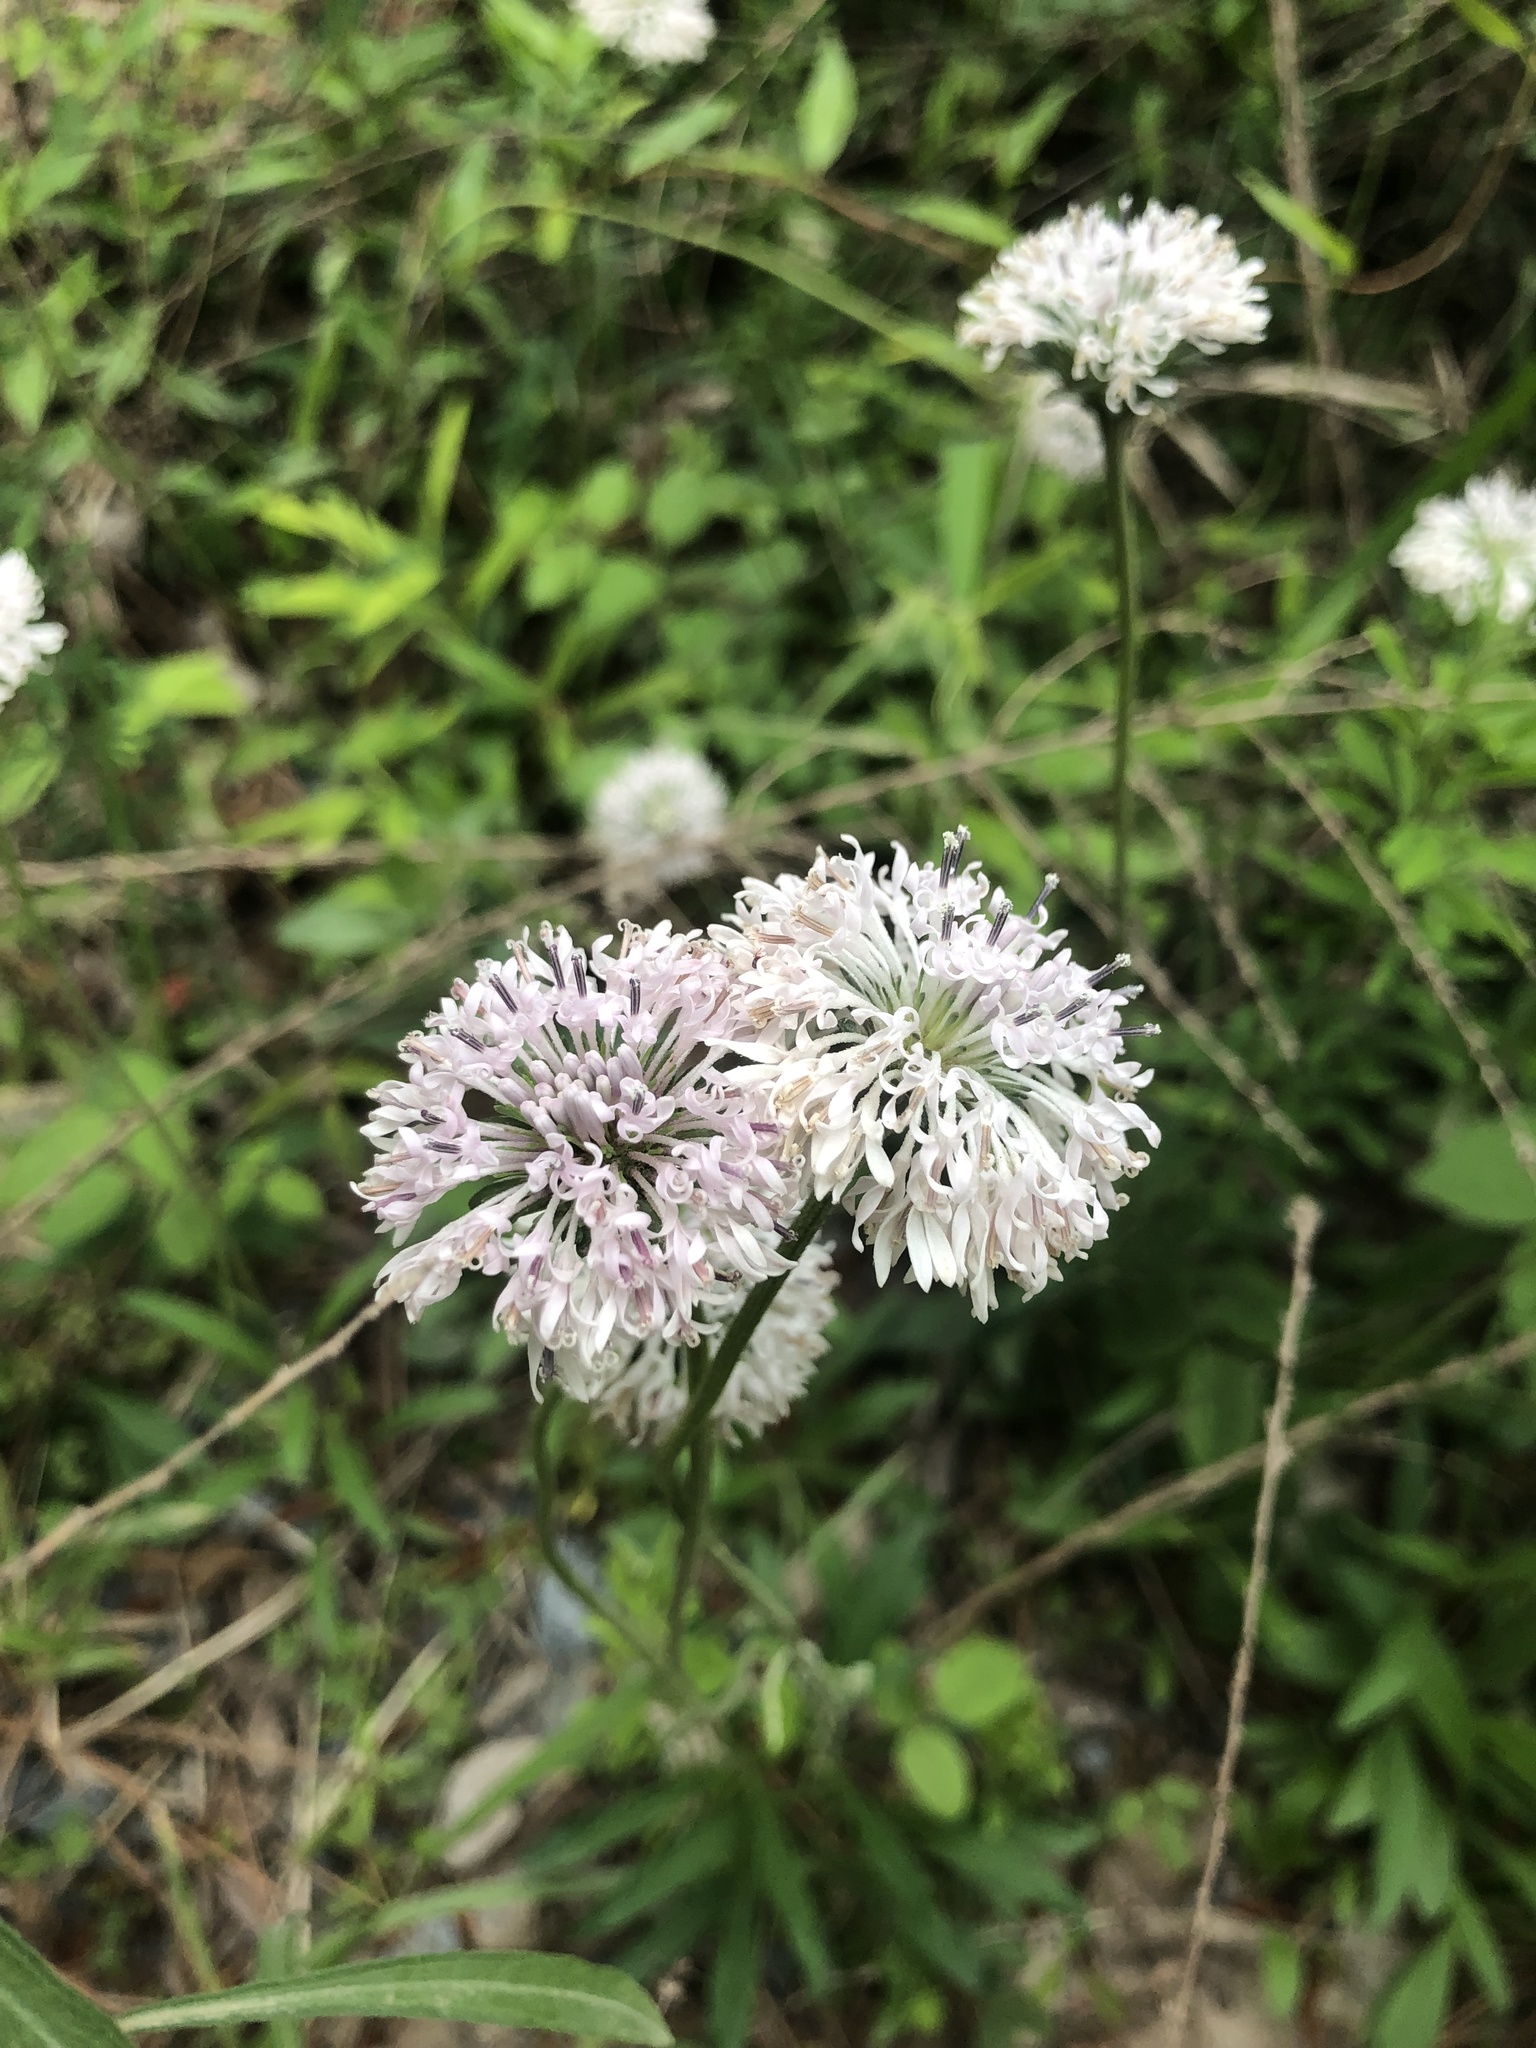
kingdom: Plantae
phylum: Tracheophyta
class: Magnoliopsida
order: Asterales
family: Asteraceae
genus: Marshallia
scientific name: Marshallia obovata
